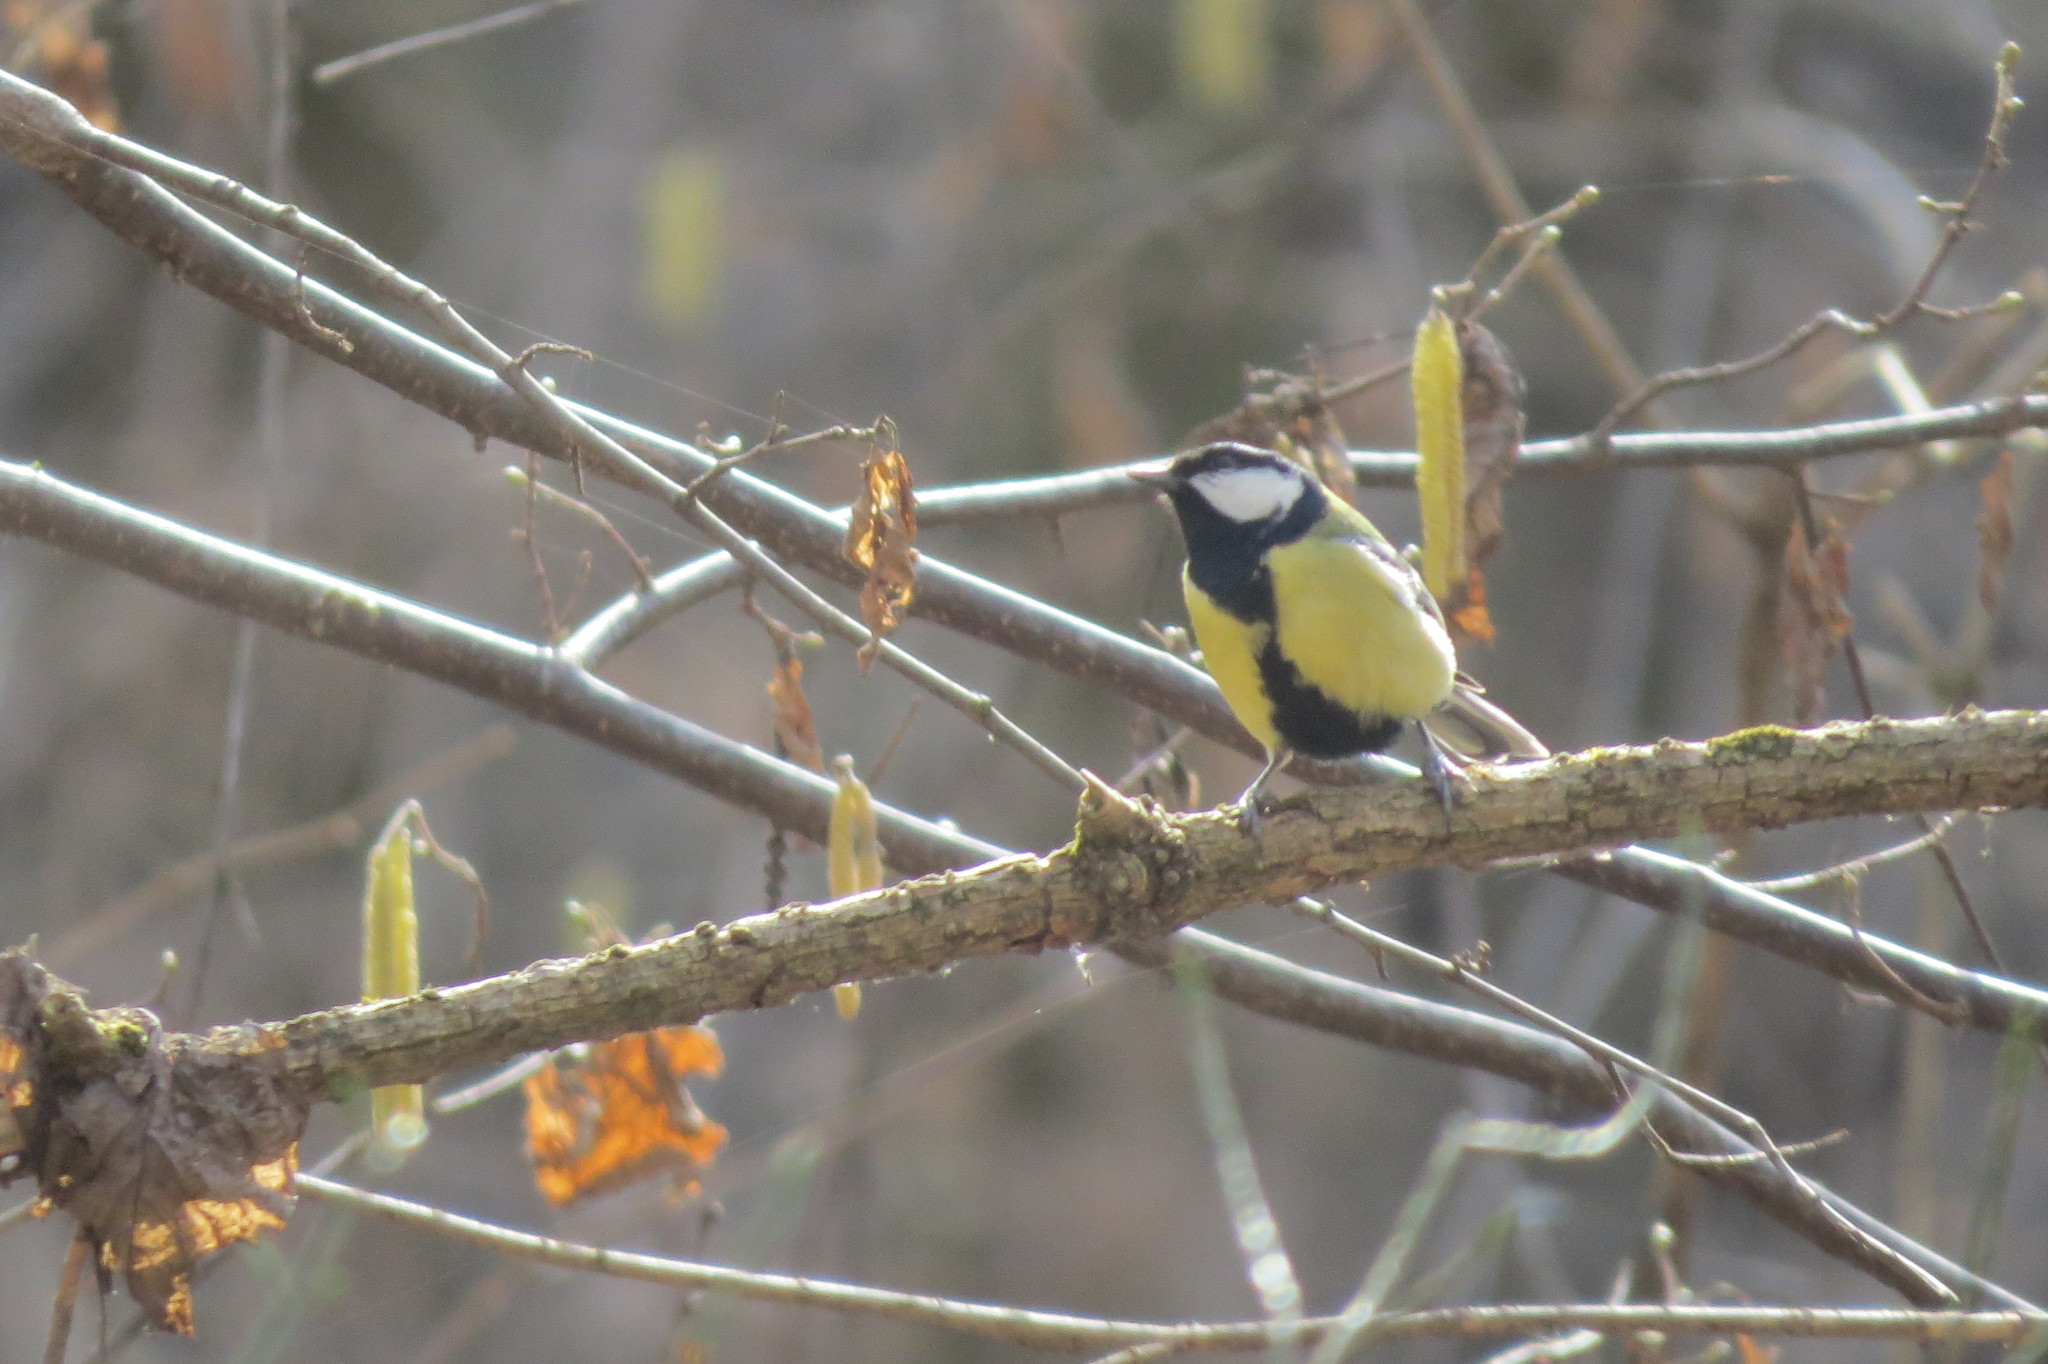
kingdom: Animalia
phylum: Chordata
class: Aves
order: Passeriformes
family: Paridae
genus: Parus
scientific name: Parus major
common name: Great tit
